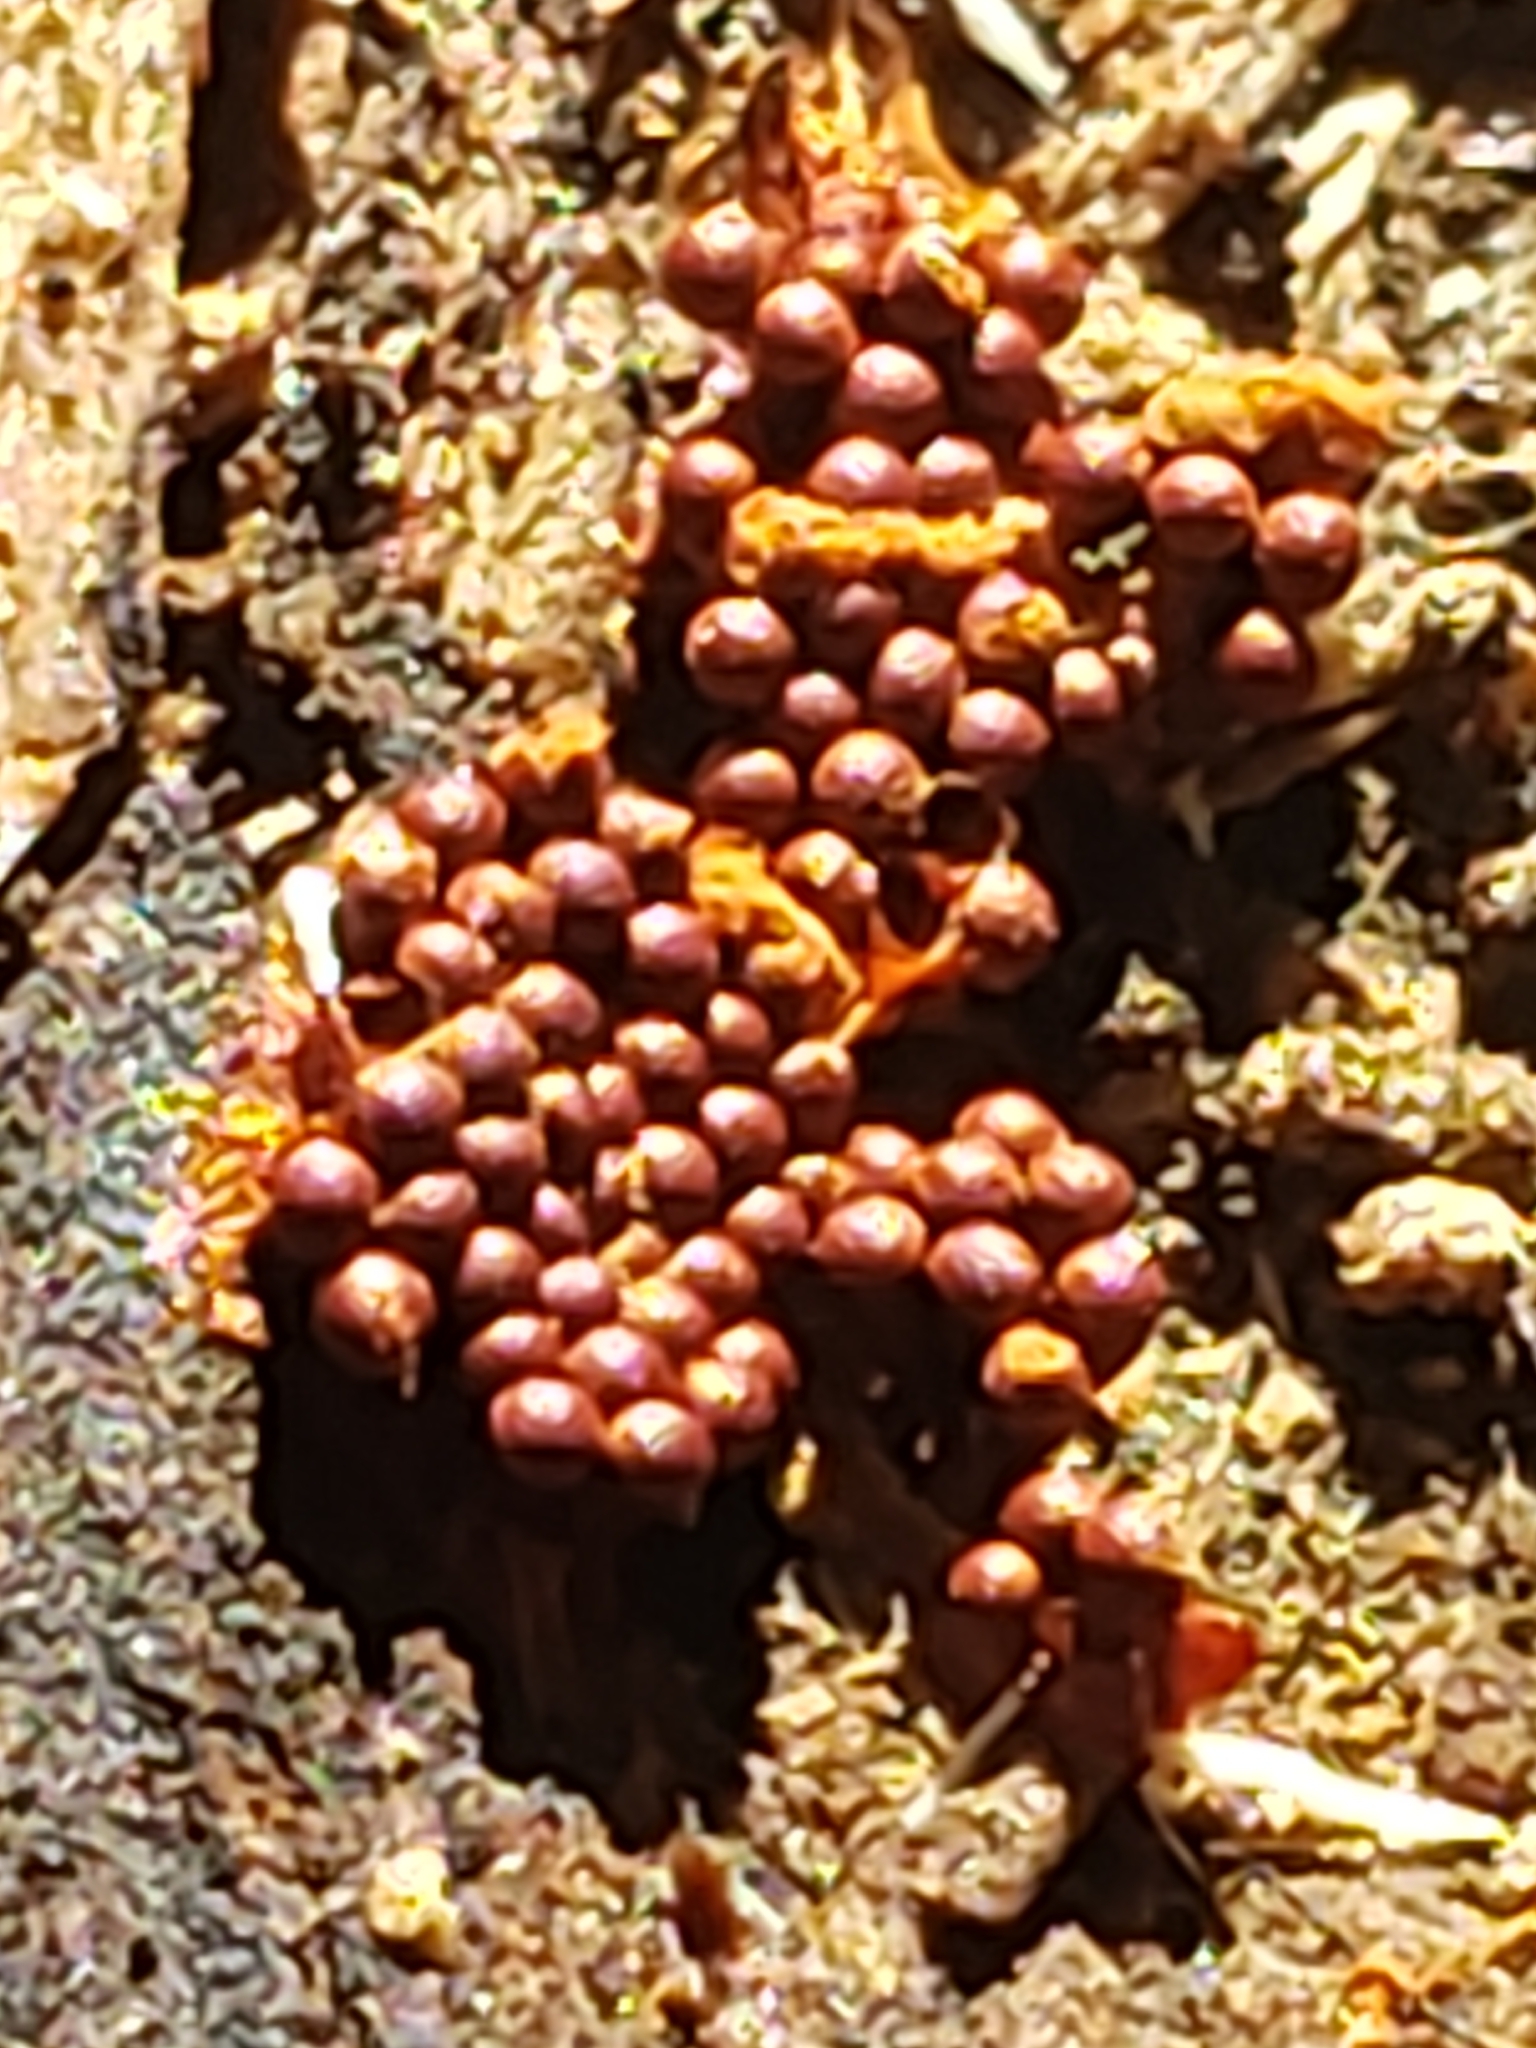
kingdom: Protozoa
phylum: Mycetozoa
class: Myxomycetes
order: Trichiales
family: Trichiaceae
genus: Metatrichia
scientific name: Metatrichia vesparia
